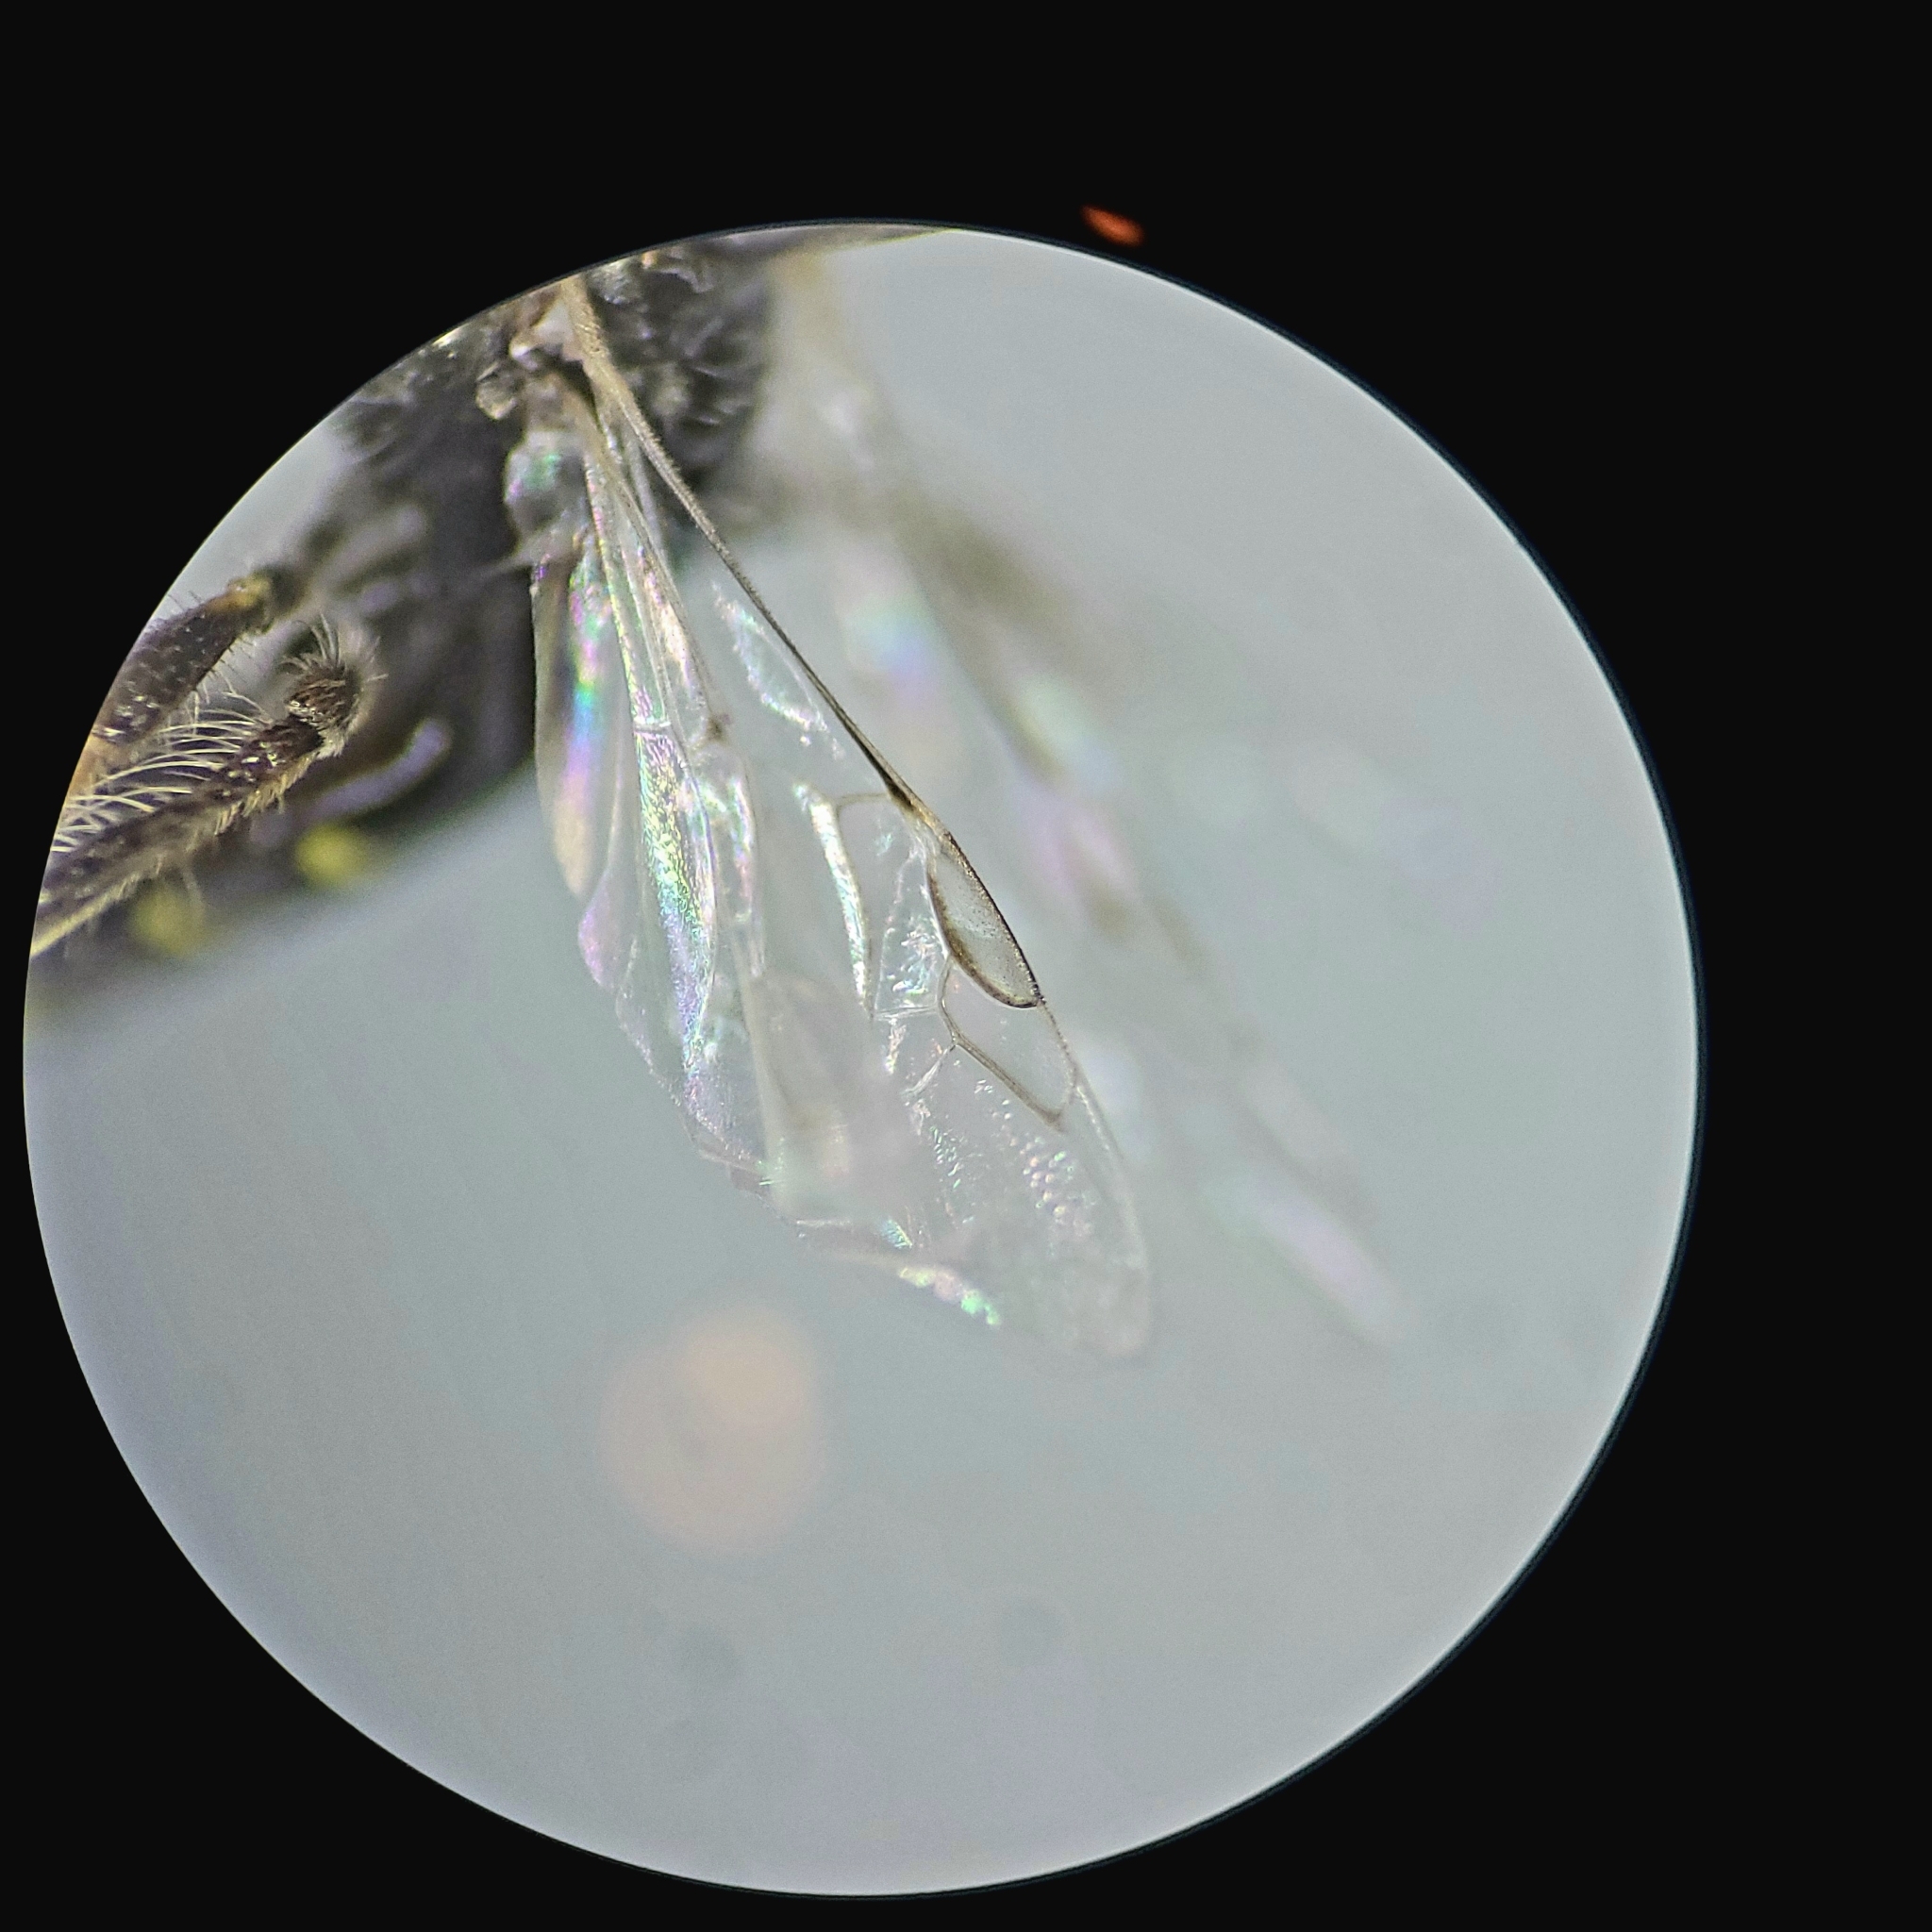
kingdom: Animalia
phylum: Arthropoda
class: Insecta
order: Hymenoptera
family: Andrenidae
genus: Perdita
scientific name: Perdita bradleyi
